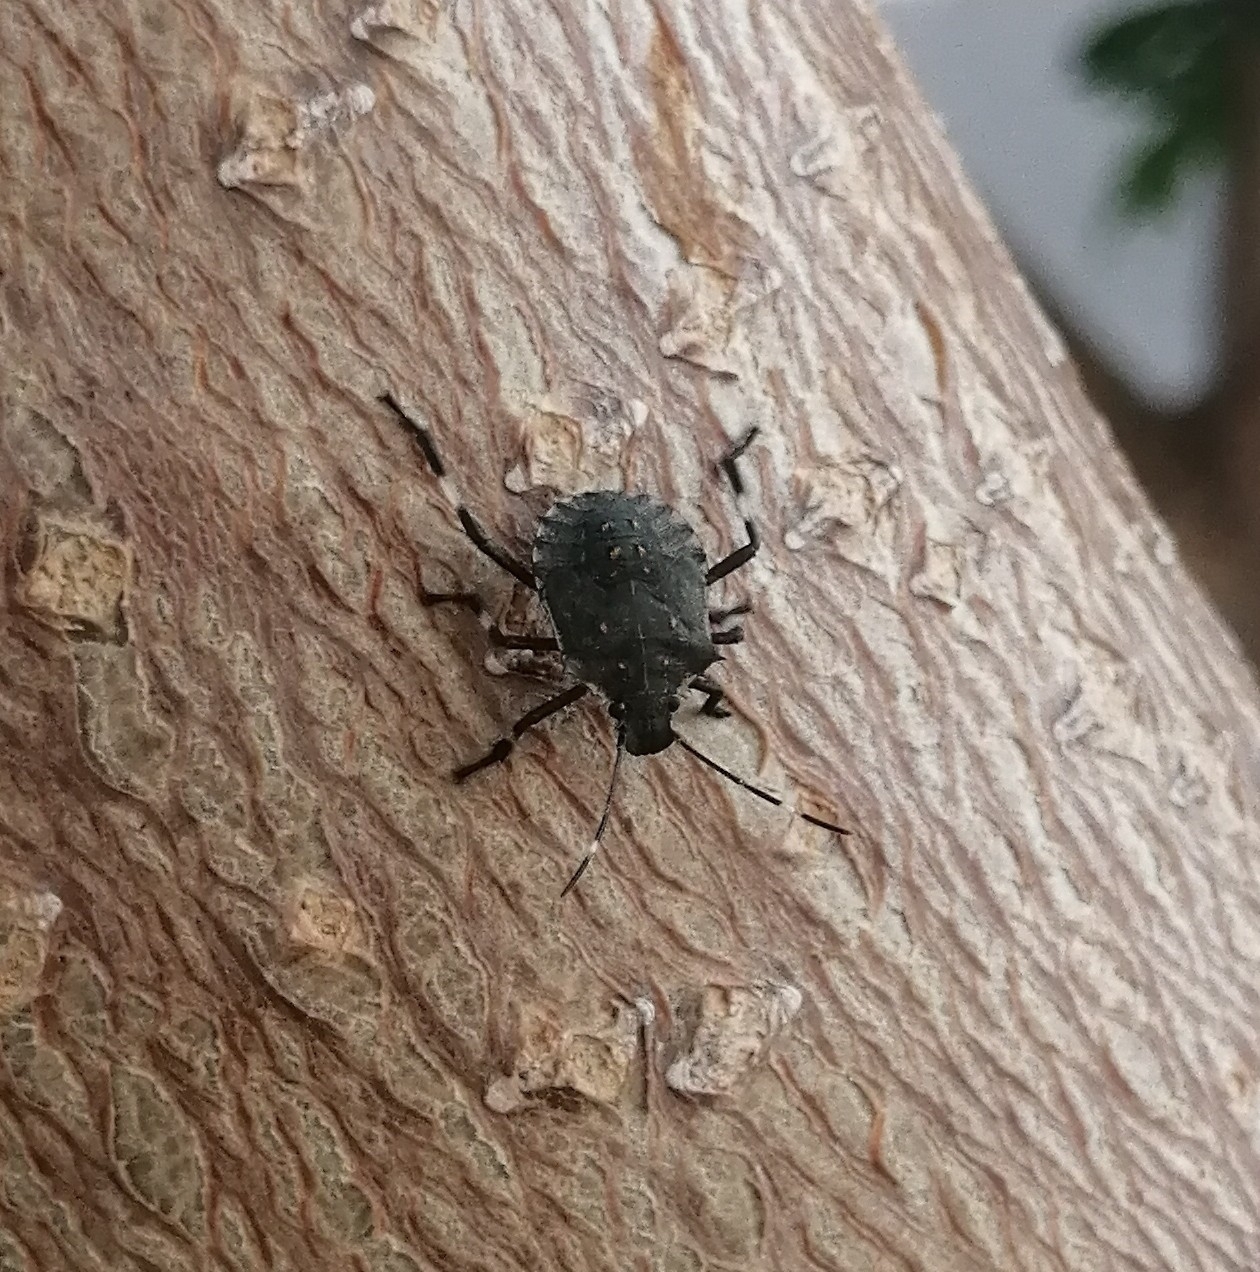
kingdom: Animalia
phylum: Arthropoda
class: Insecta
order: Hemiptera
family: Pentatomidae
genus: Halyomorpha
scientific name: Halyomorpha halys
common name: Brown marmorated stink bug
